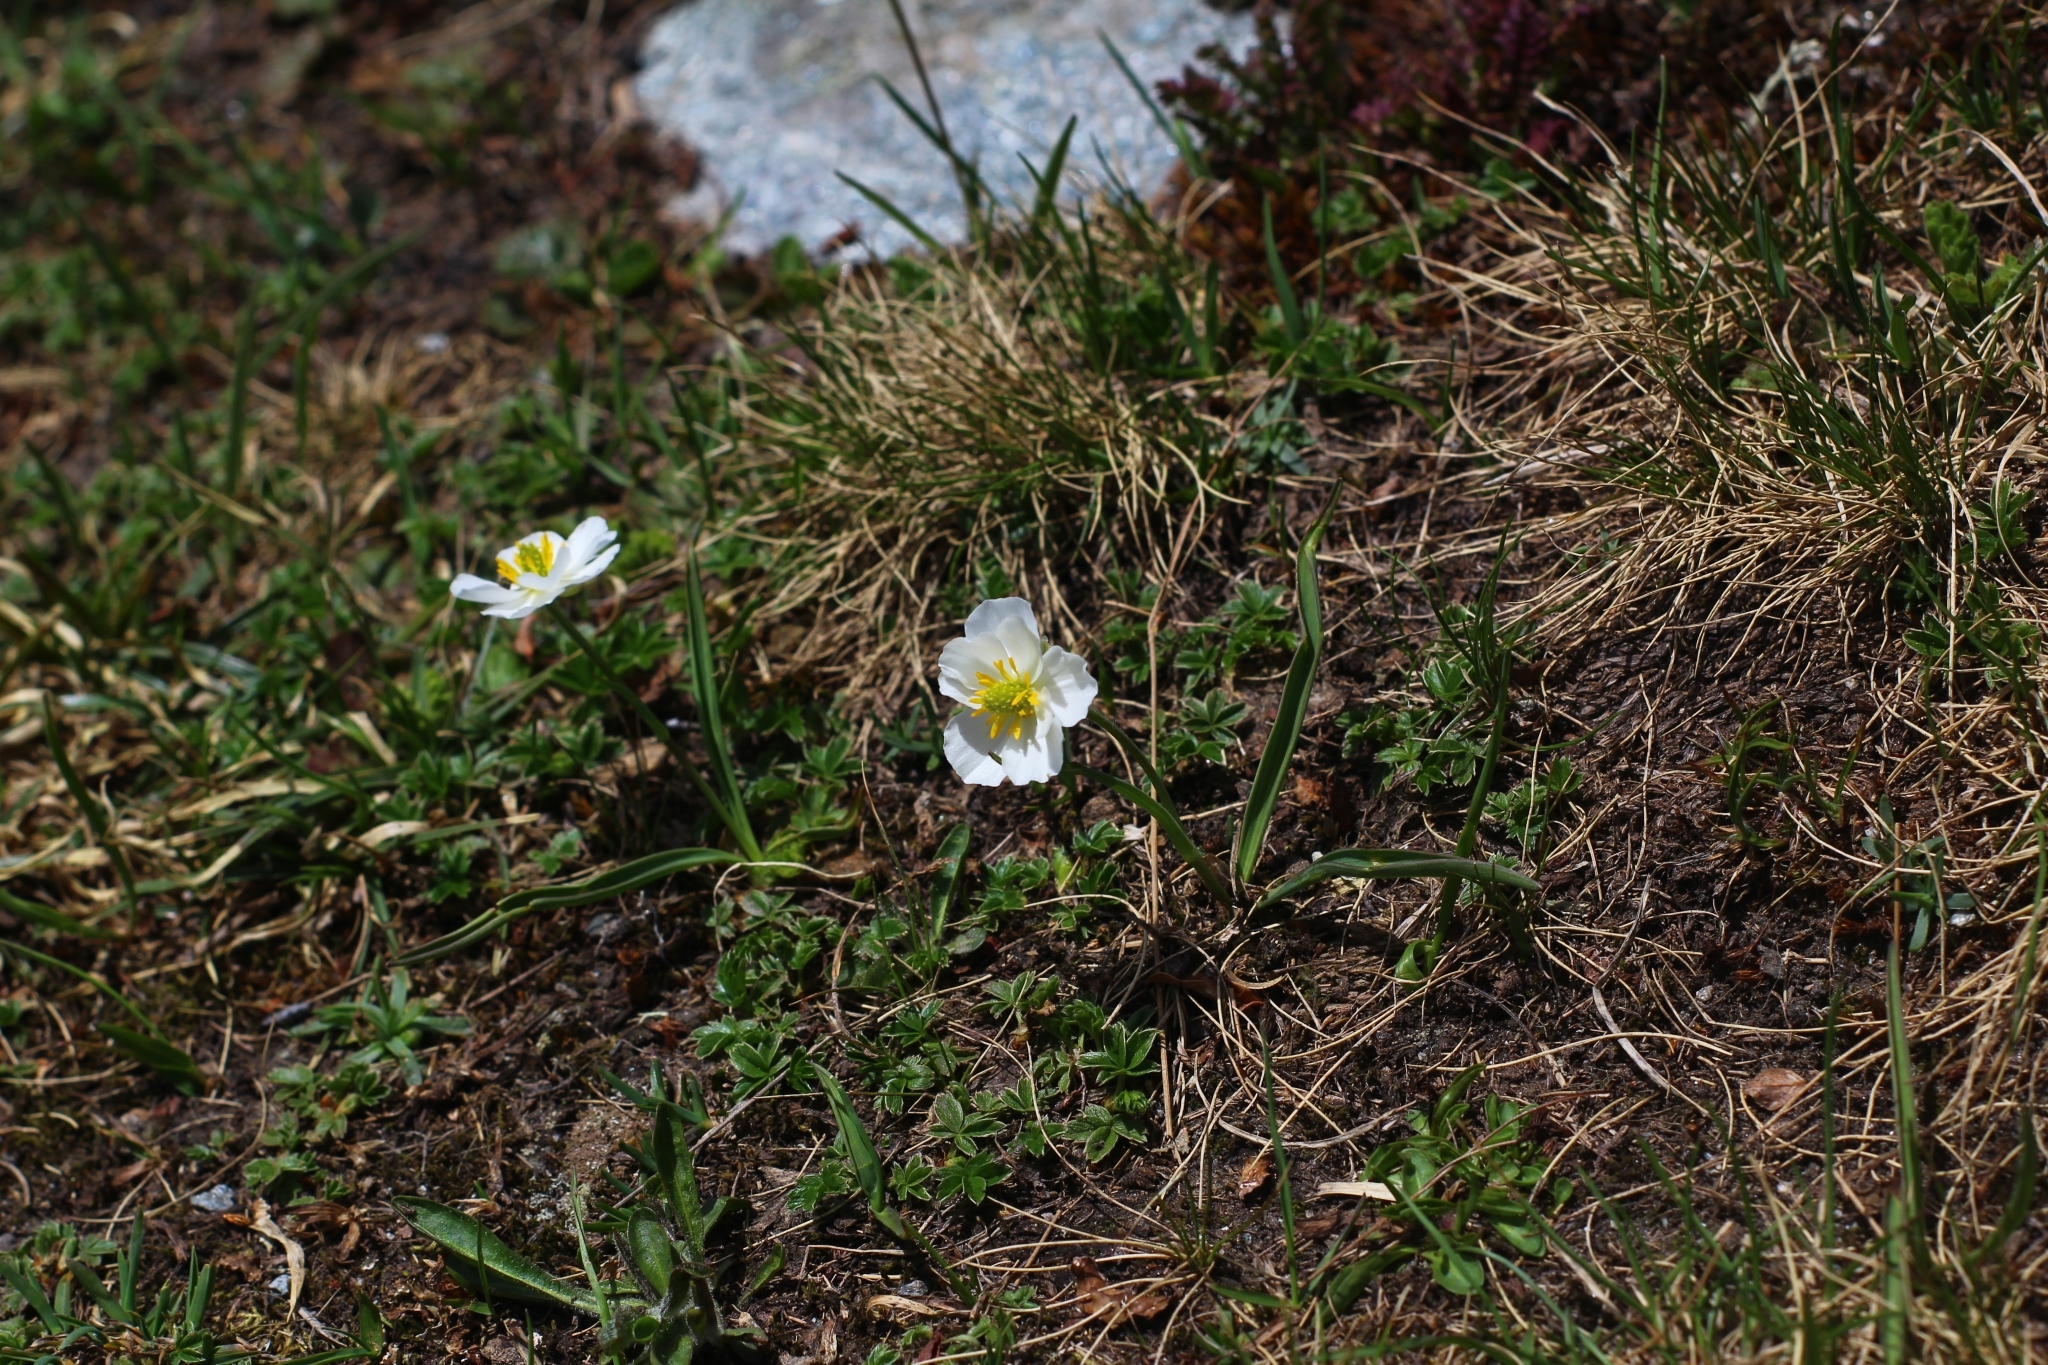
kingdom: Plantae
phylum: Tracheophyta
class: Magnoliopsida
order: Ranunculales
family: Ranunculaceae
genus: Ranunculus
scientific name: Ranunculus kuepferi
